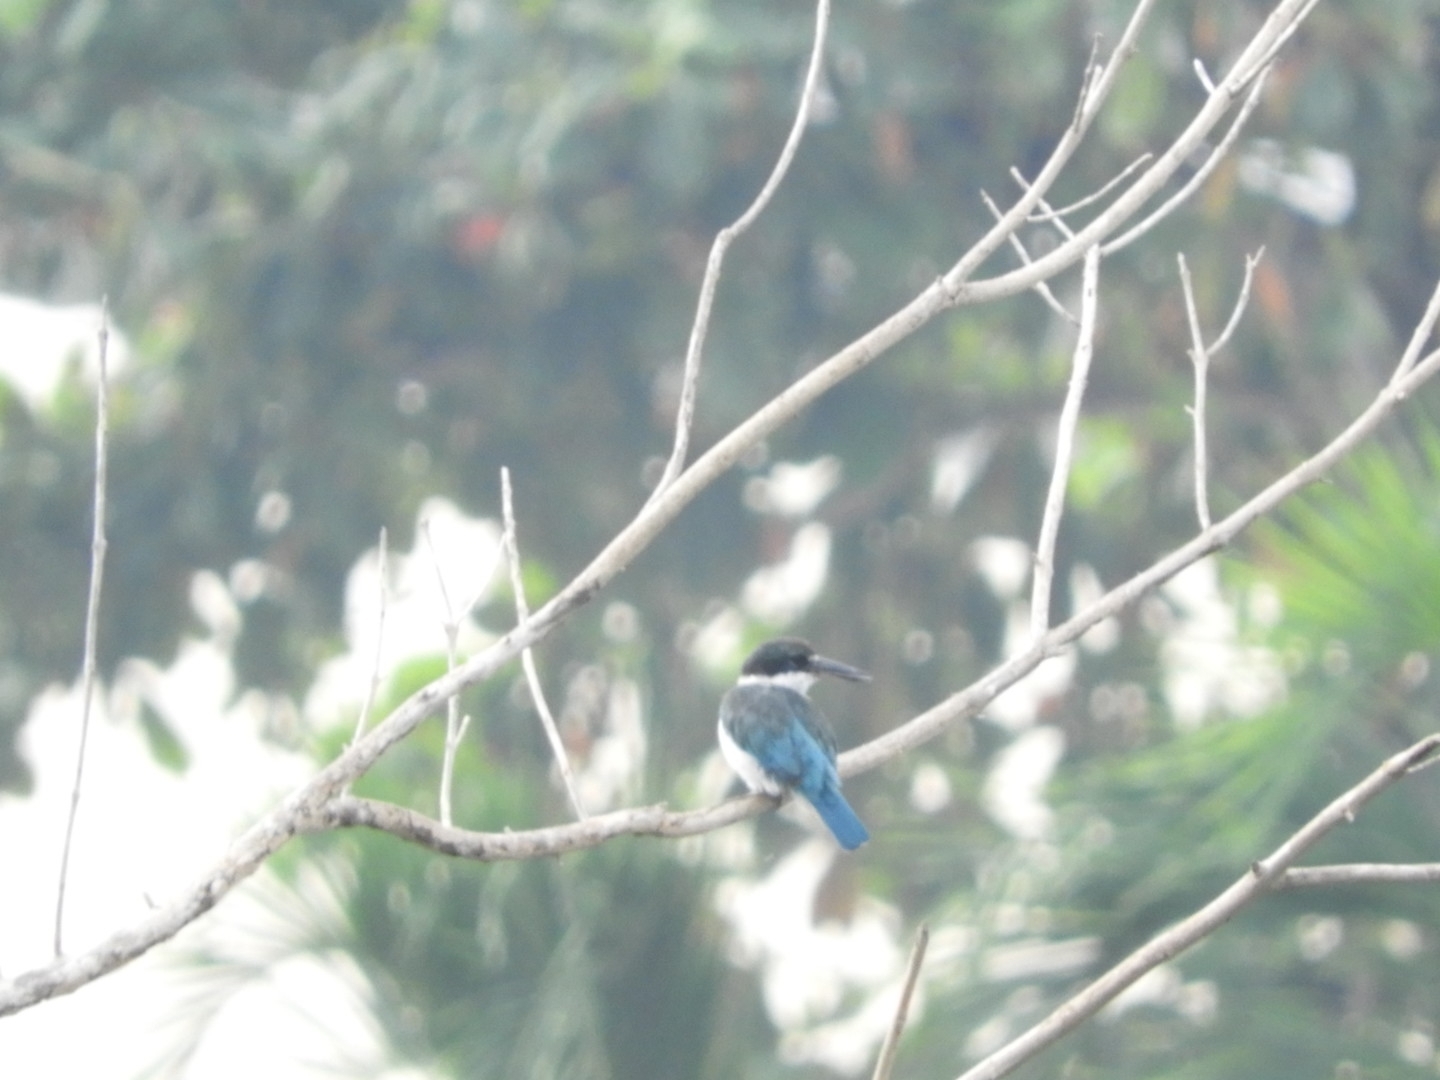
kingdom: Animalia
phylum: Chordata
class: Aves
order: Coraciiformes
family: Alcedinidae
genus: Todiramphus
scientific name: Todiramphus chloris
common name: Collared kingfisher
